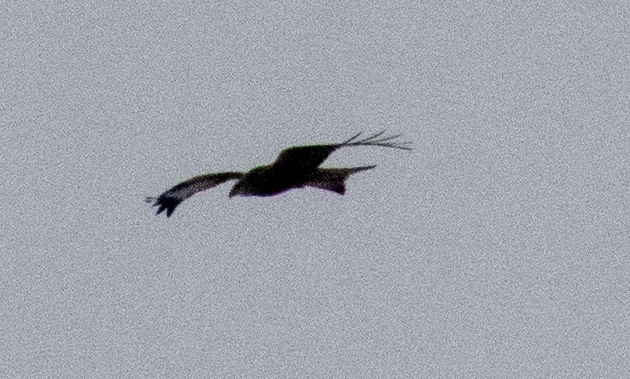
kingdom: Animalia
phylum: Chordata
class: Aves
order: Accipitriformes
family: Accipitridae
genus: Milvus
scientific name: Milvus milvus
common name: Red kite
